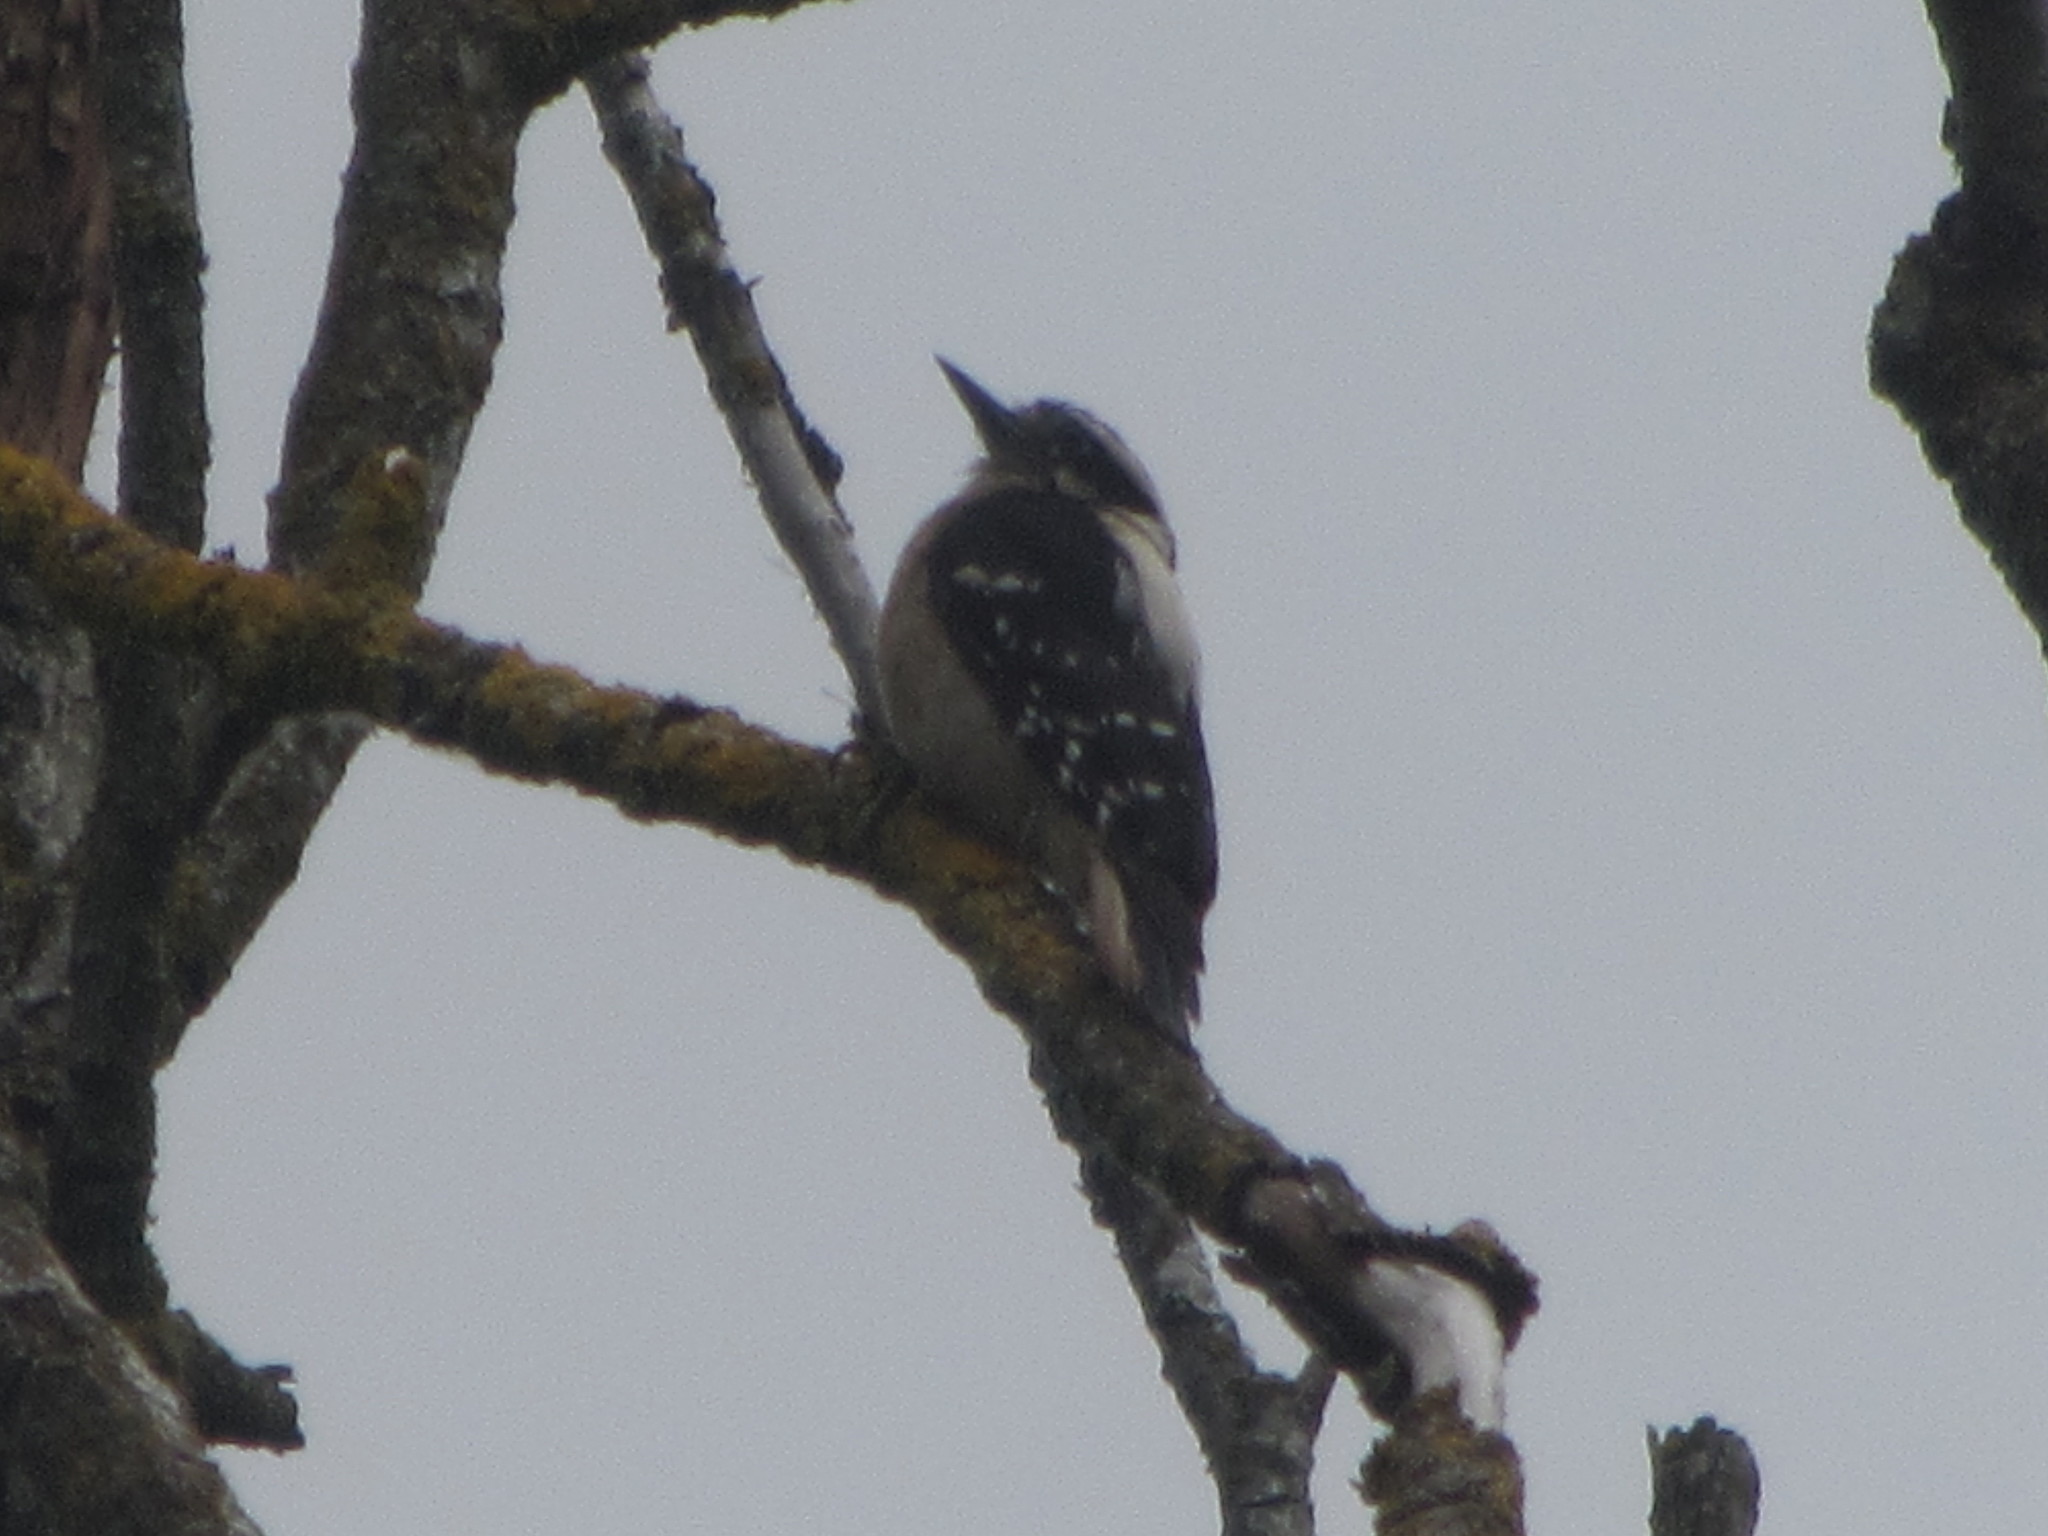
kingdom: Animalia
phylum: Chordata
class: Aves
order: Piciformes
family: Picidae
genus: Leuconotopicus
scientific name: Leuconotopicus villosus
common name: Hairy woodpecker
